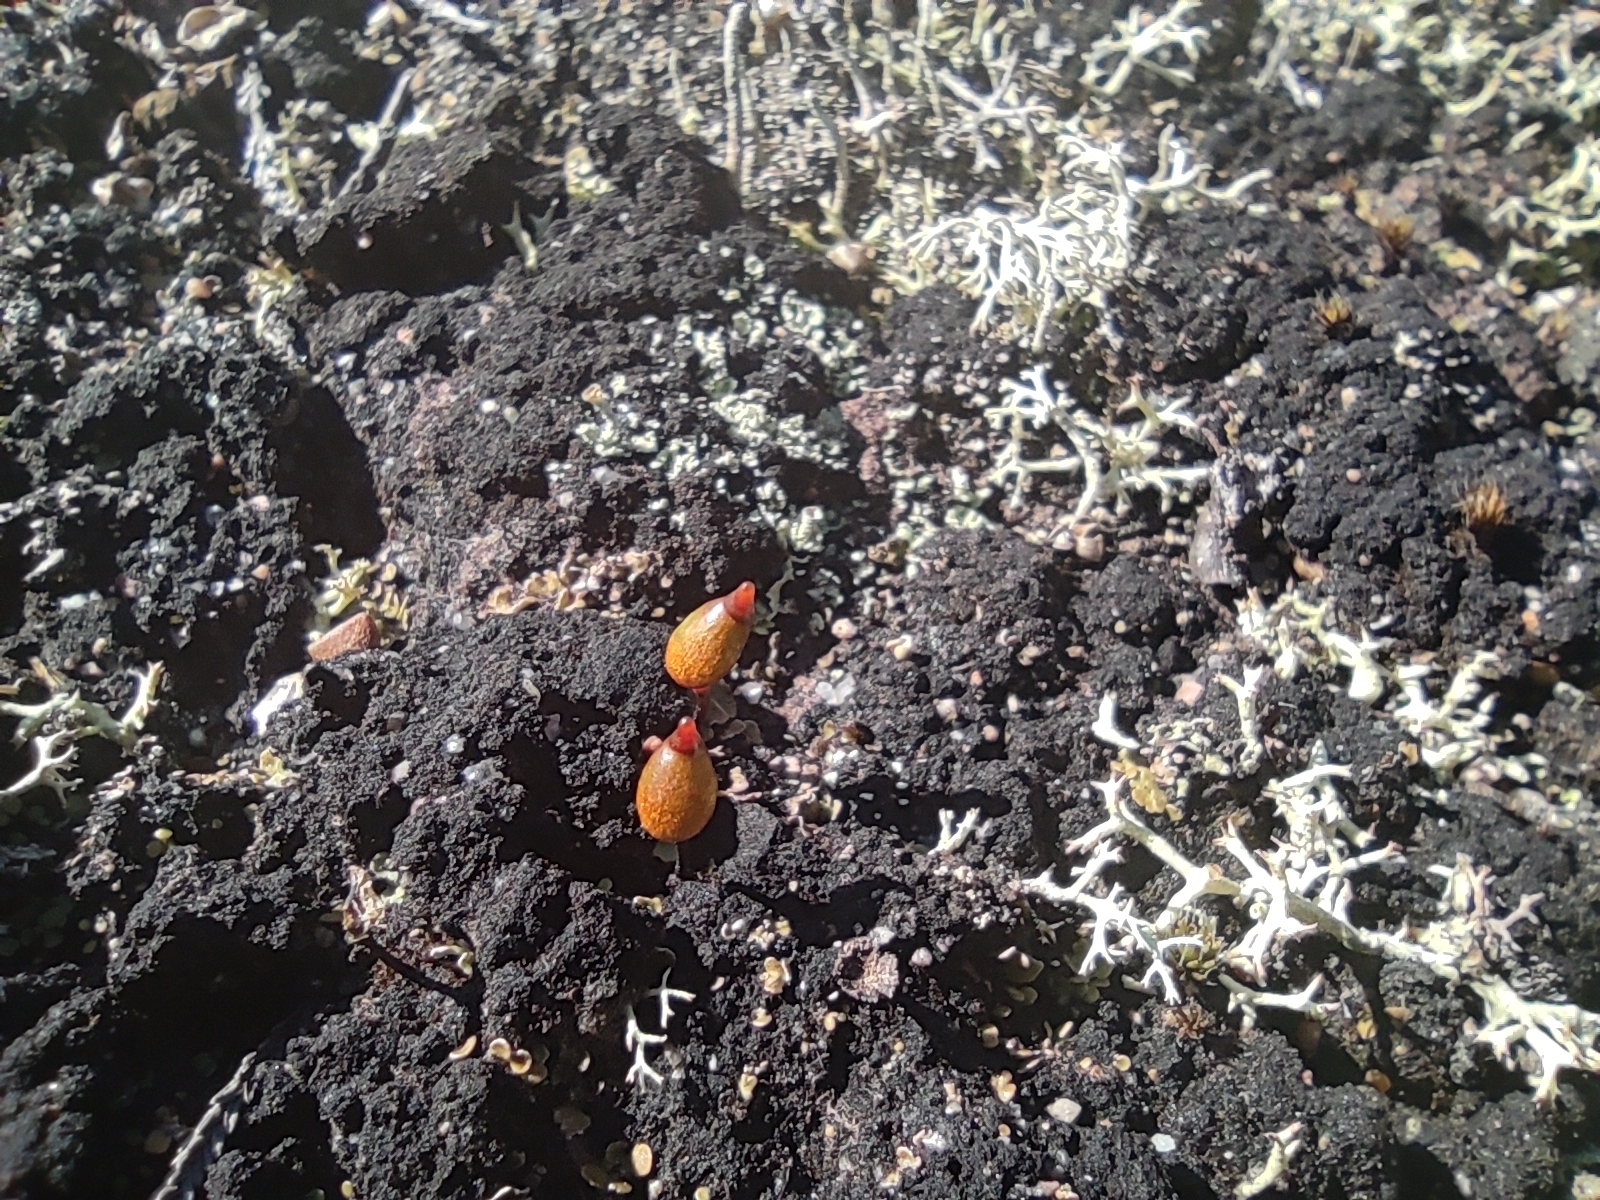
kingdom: Plantae
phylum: Bryophyta
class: Bryopsida
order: Buxbaumiales
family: Buxbaumiaceae
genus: Buxbaumia
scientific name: Buxbaumia aphylla
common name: Brown shield-moss
